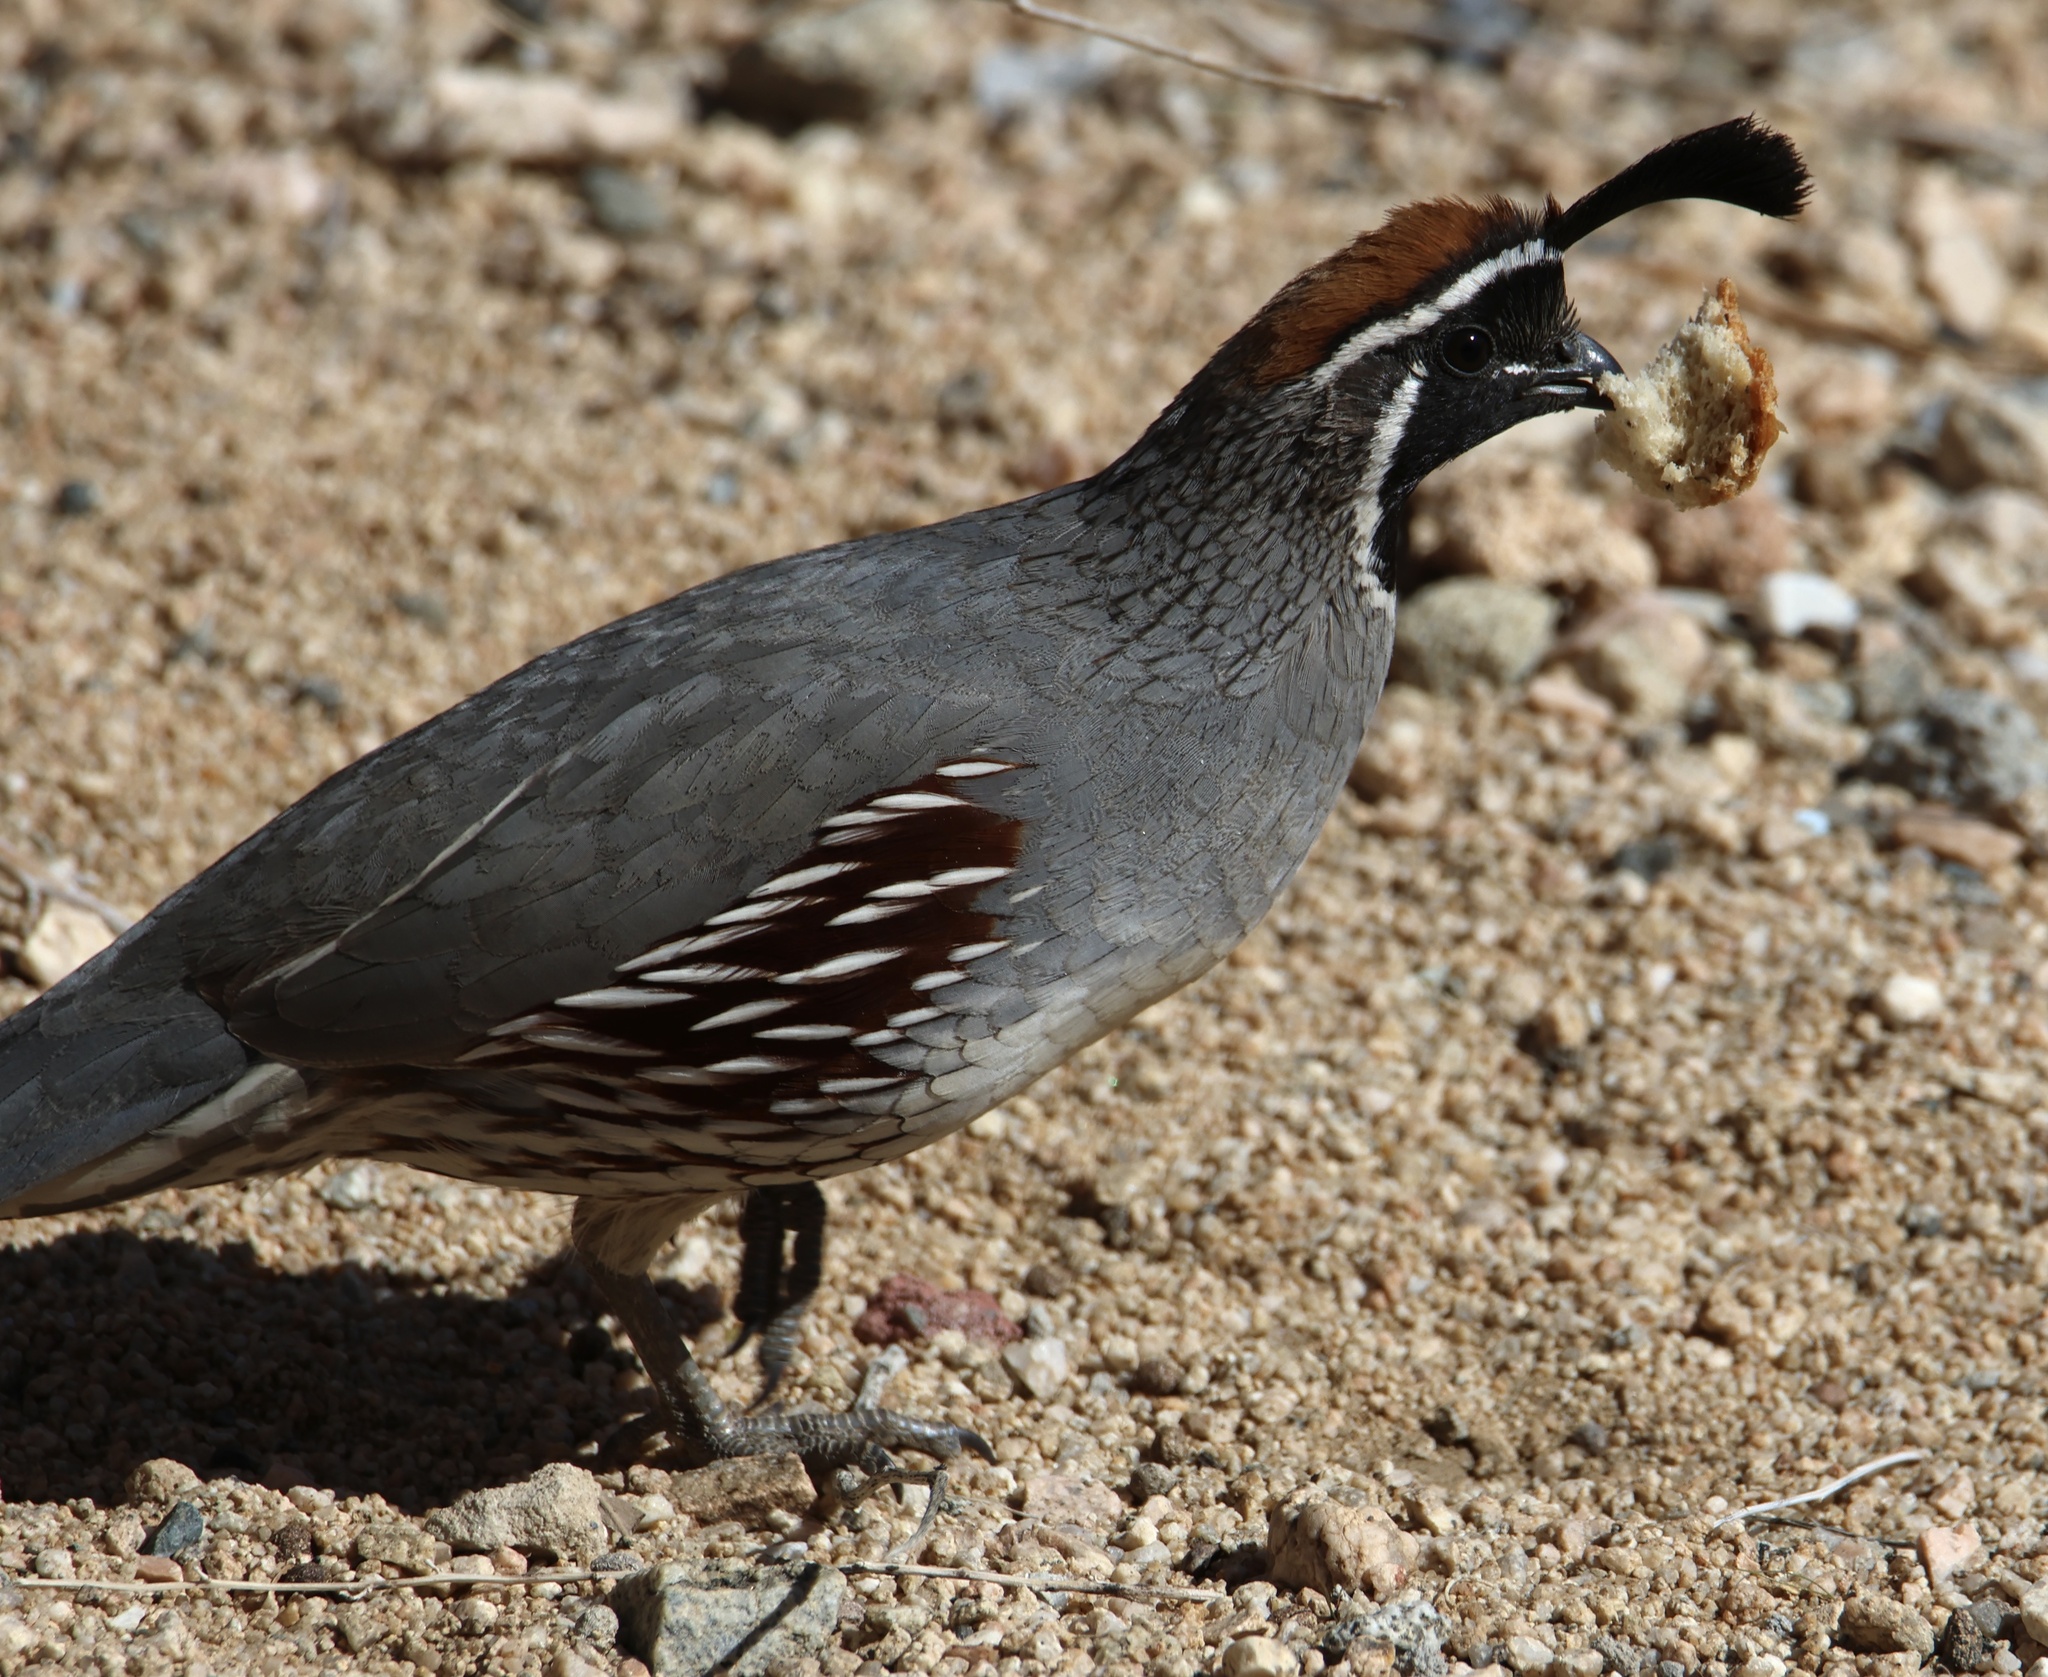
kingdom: Animalia
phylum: Chordata
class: Aves
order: Galliformes
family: Odontophoridae
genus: Callipepla
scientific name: Callipepla gambelii
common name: Gambel's quail
